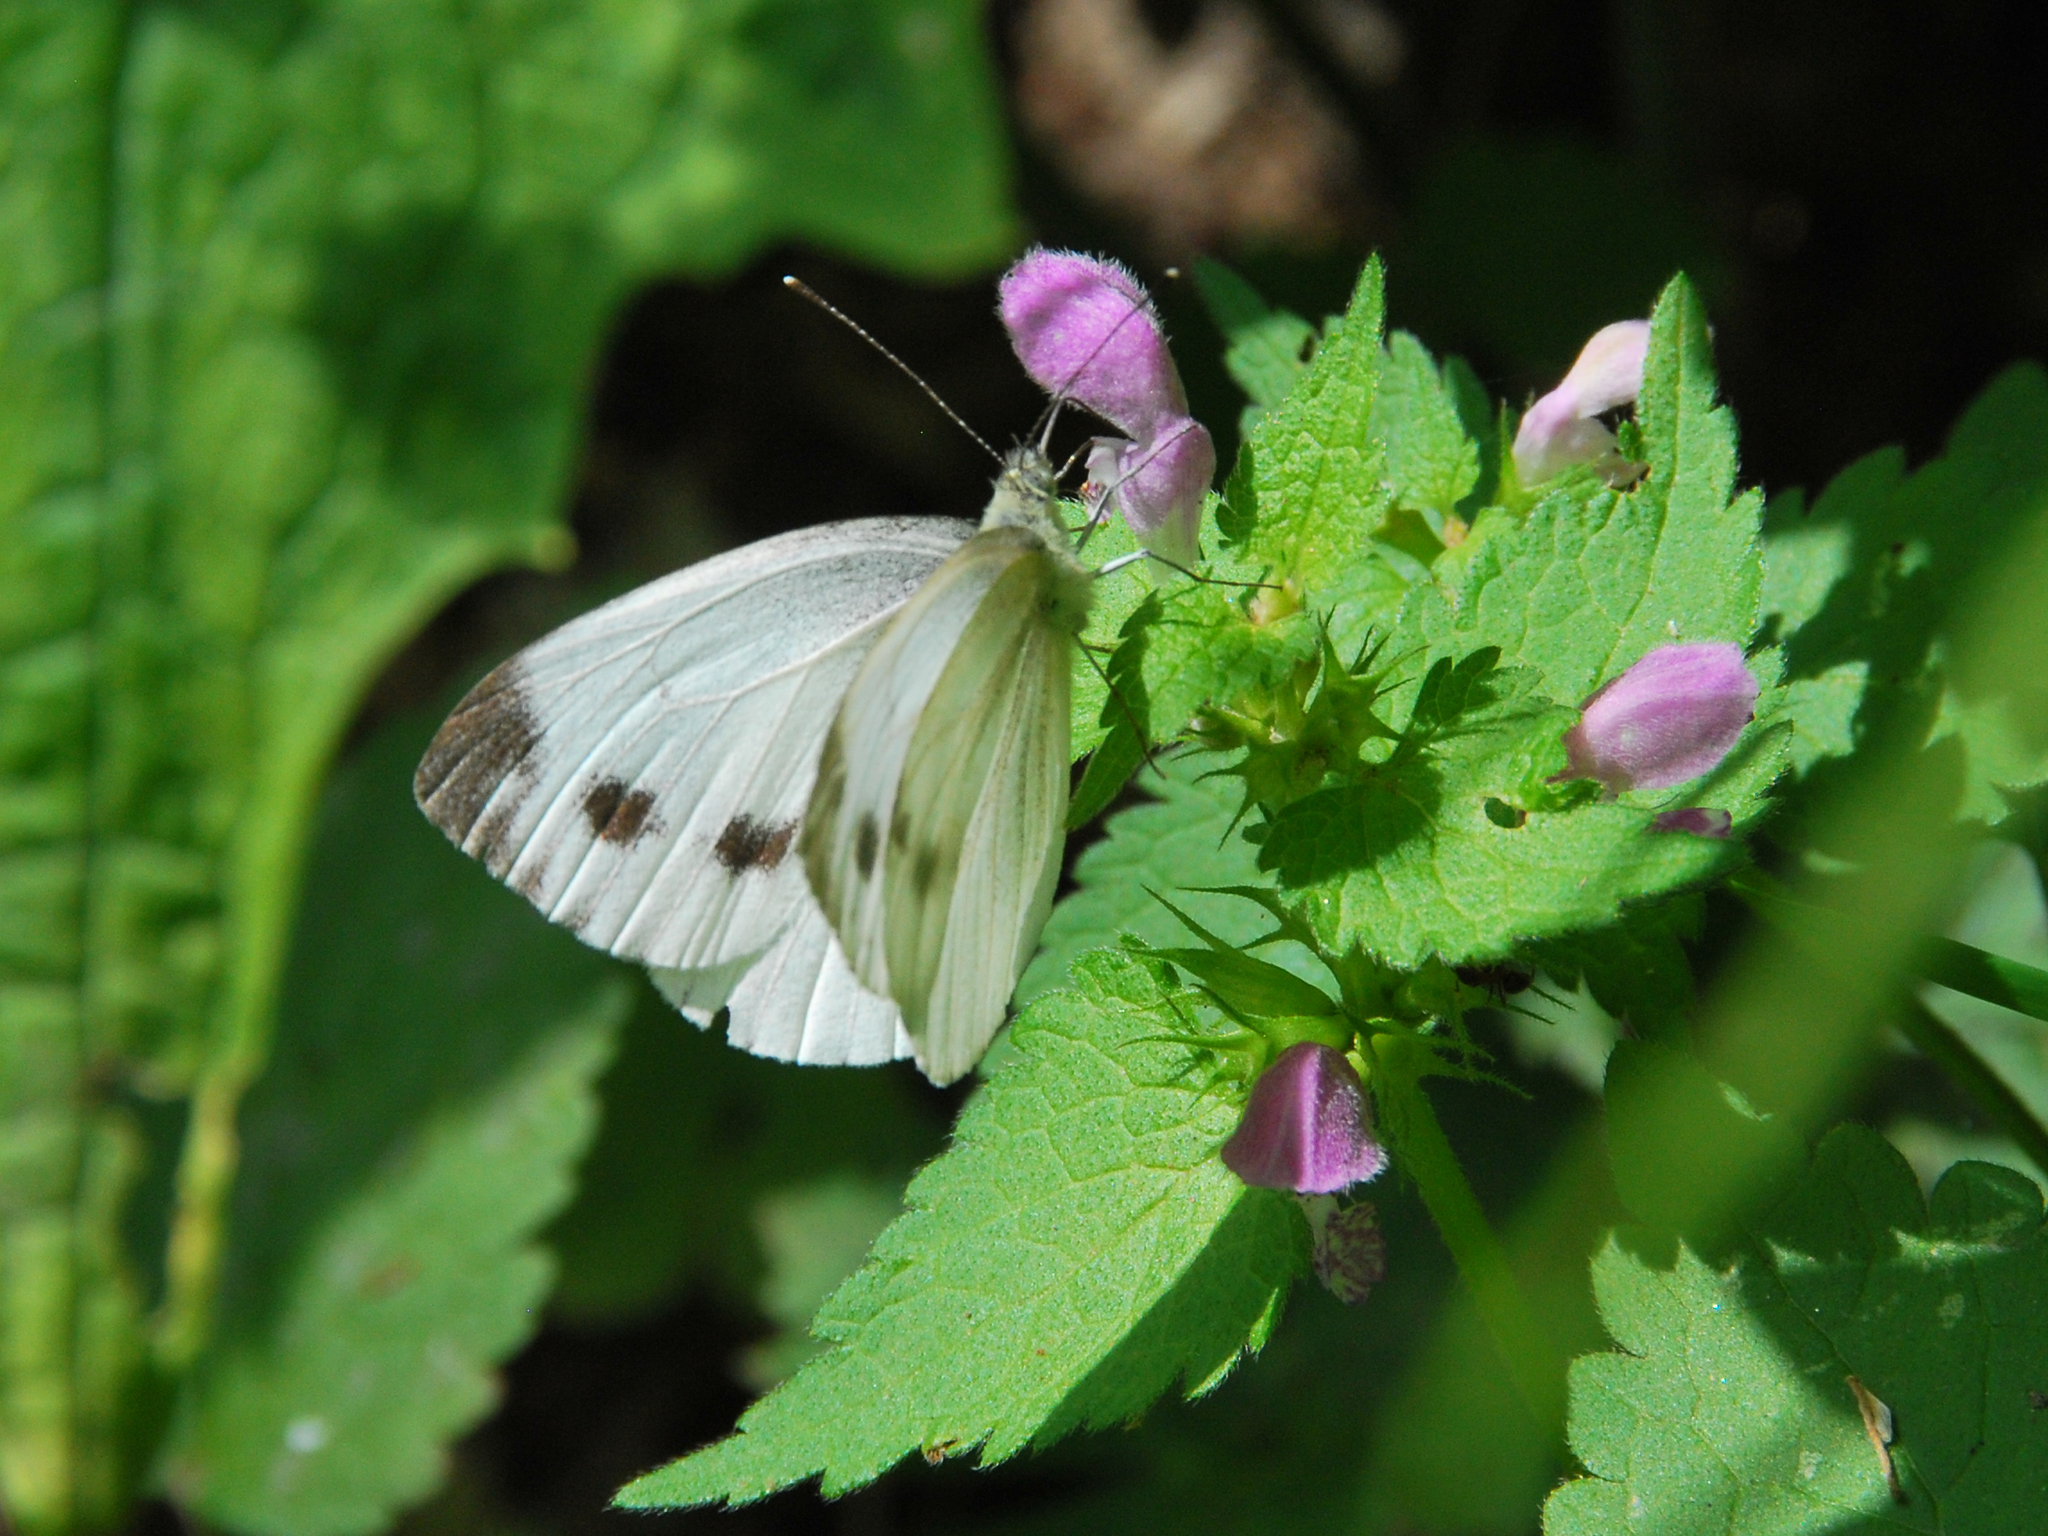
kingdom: Animalia
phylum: Arthropoda
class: Insecta
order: Lepidoptera
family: Pieridae
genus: Pieris
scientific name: Pieris napi
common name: Green-veined white
